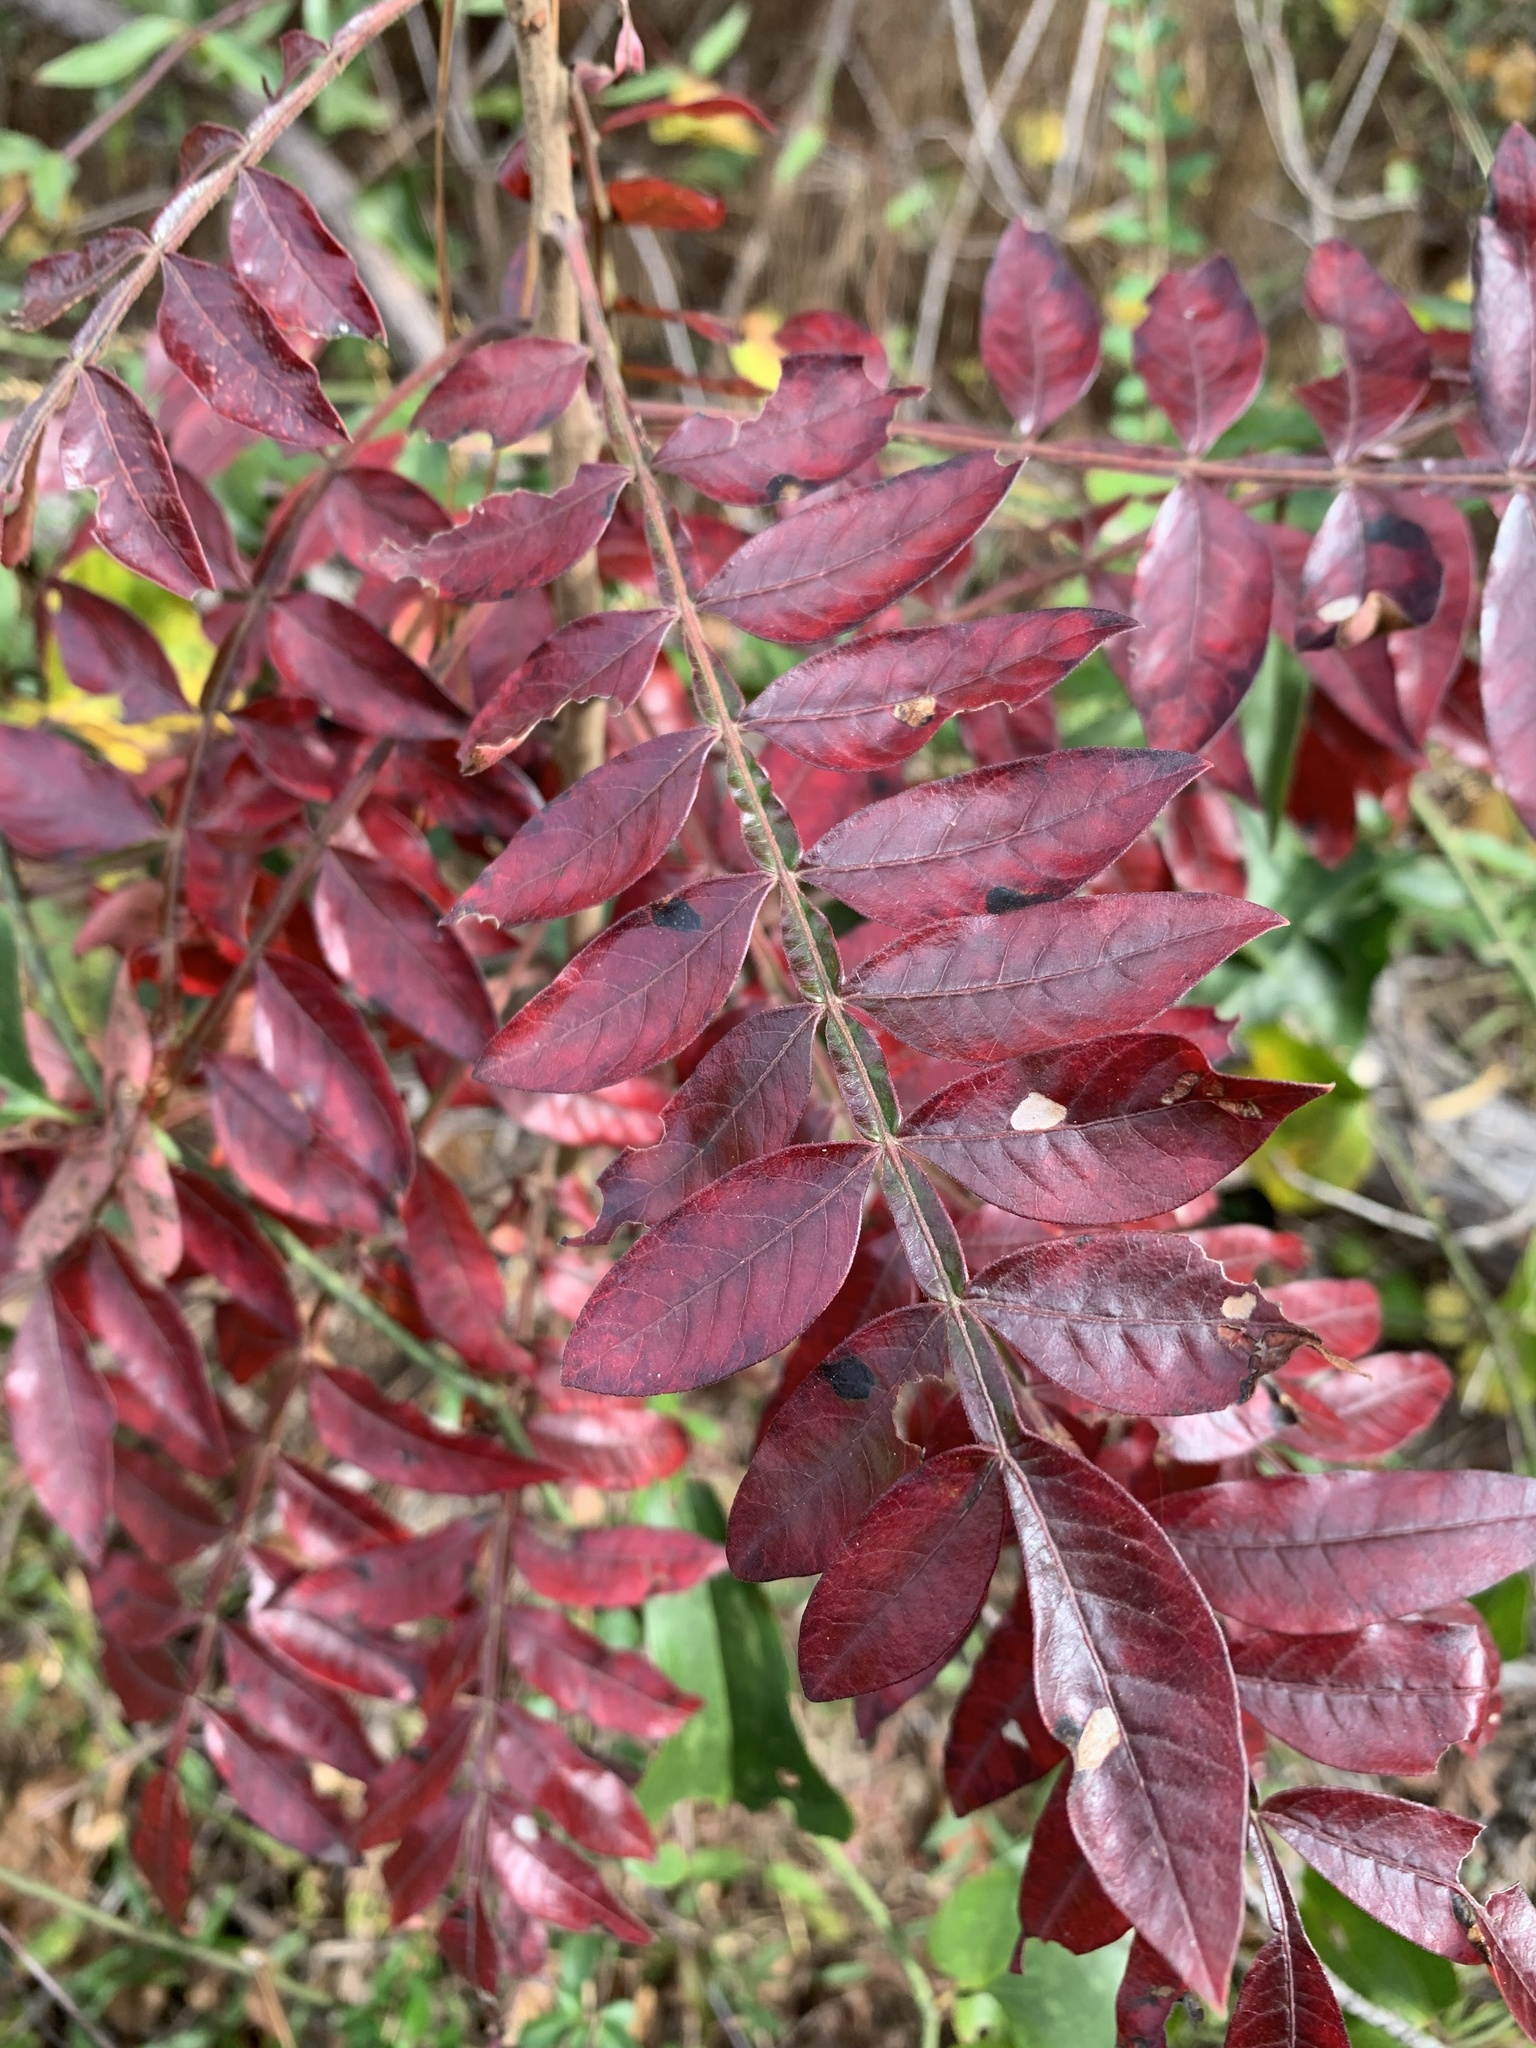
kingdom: Plantae
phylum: Tracheophyta
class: Magnoliopsida
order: Sapindales
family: Anacardiaceae
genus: Rhus
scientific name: Rhus copallina
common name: Shining sumac
